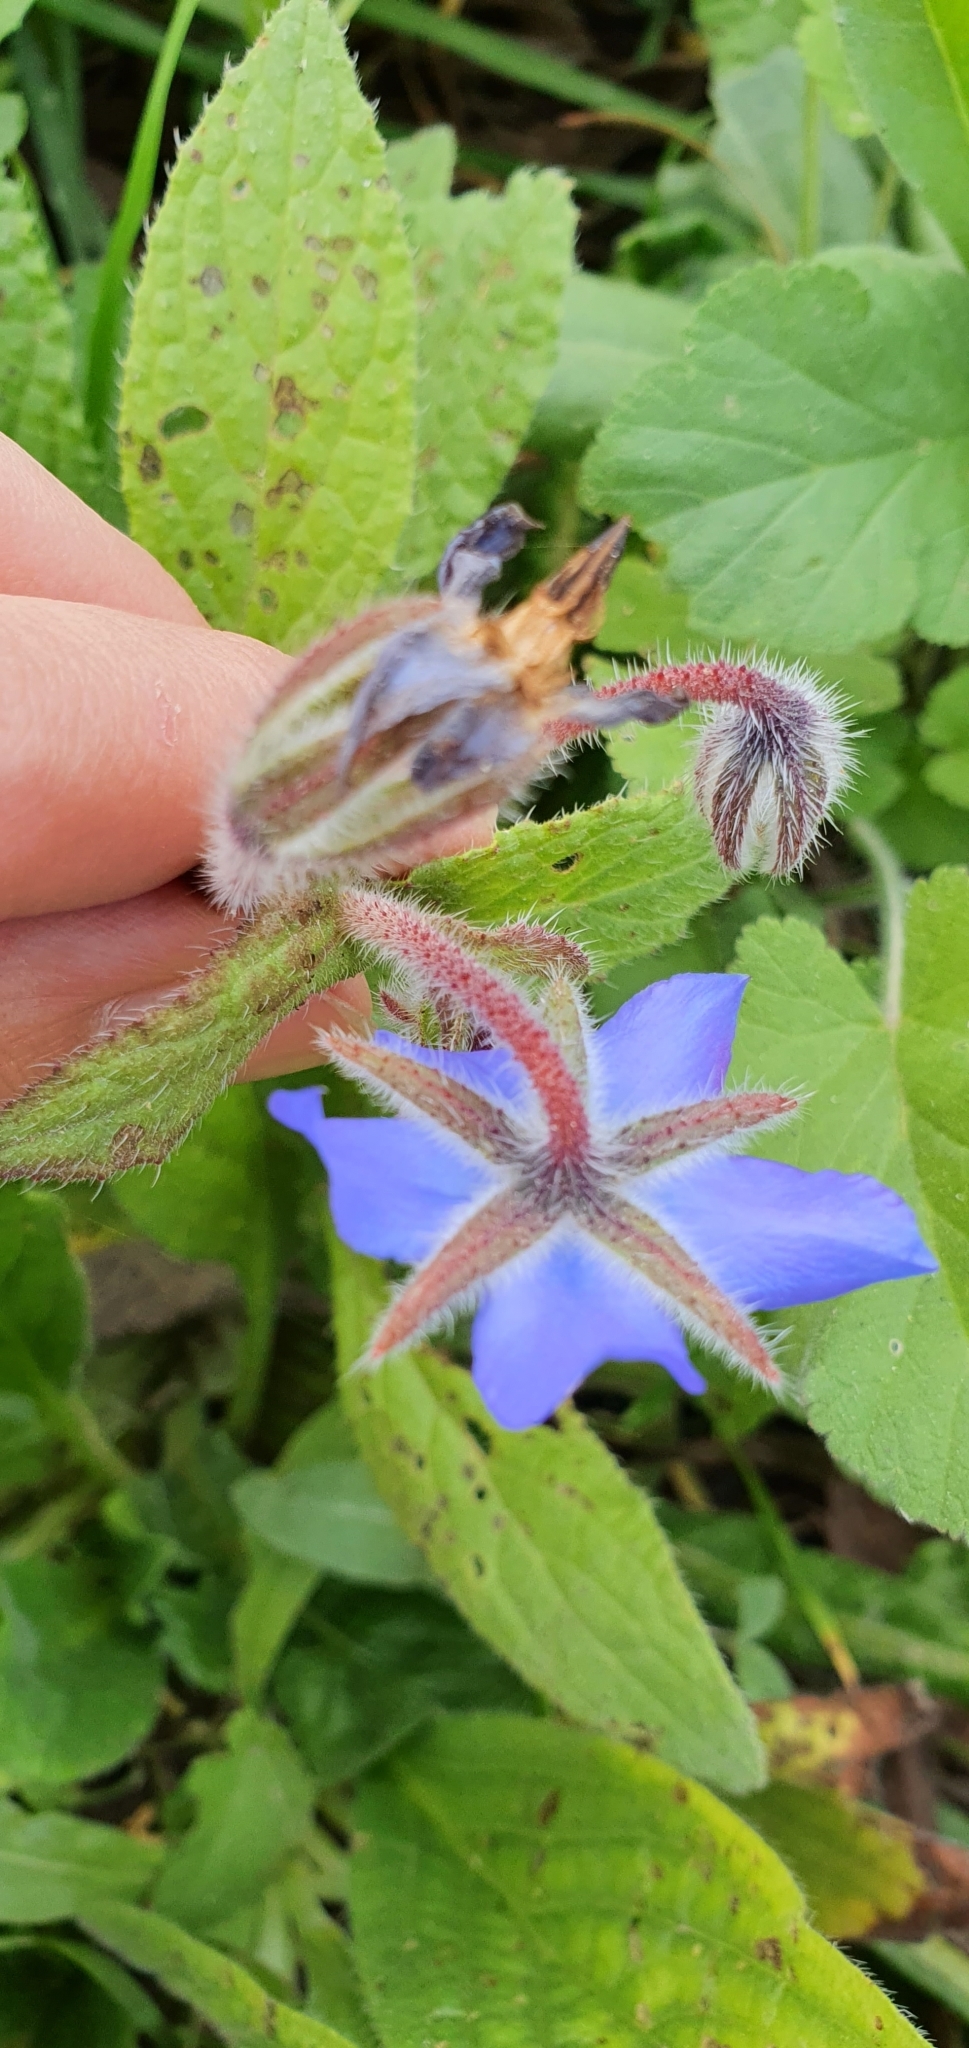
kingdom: Plantae
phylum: Tracheophyta
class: Magnoliopsida
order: Boraginales
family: Boraginaceae
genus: Borago
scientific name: Borago officinalis
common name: Borage
